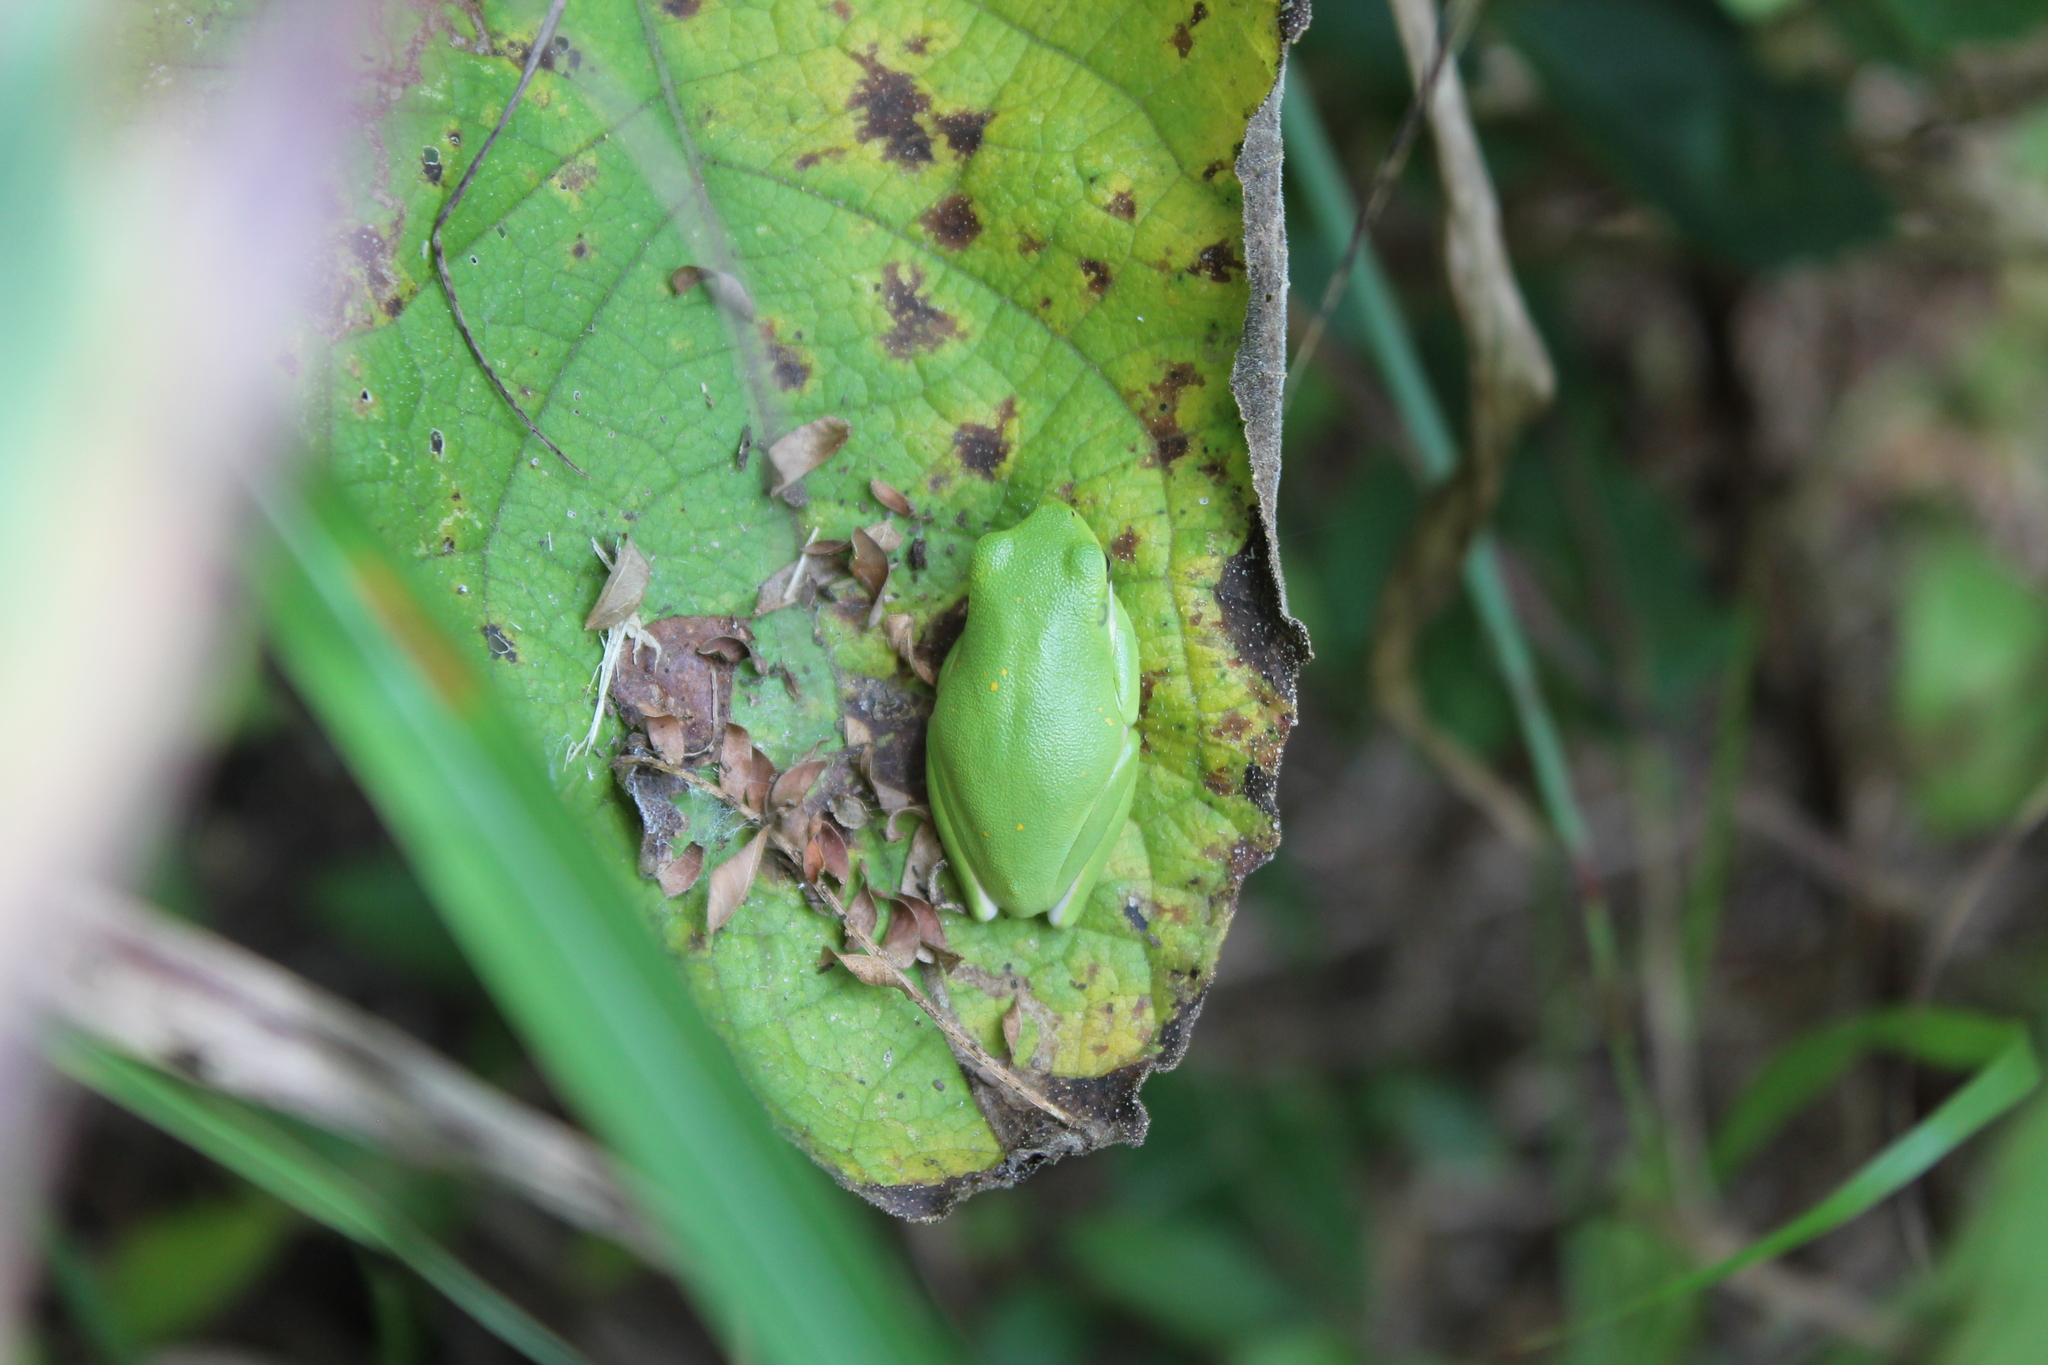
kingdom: Animalia
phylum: Chordata
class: Amphibia
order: Anura
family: Hylidae
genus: Dryophytes
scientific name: Dryophytes cinereus
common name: Green treefrog
